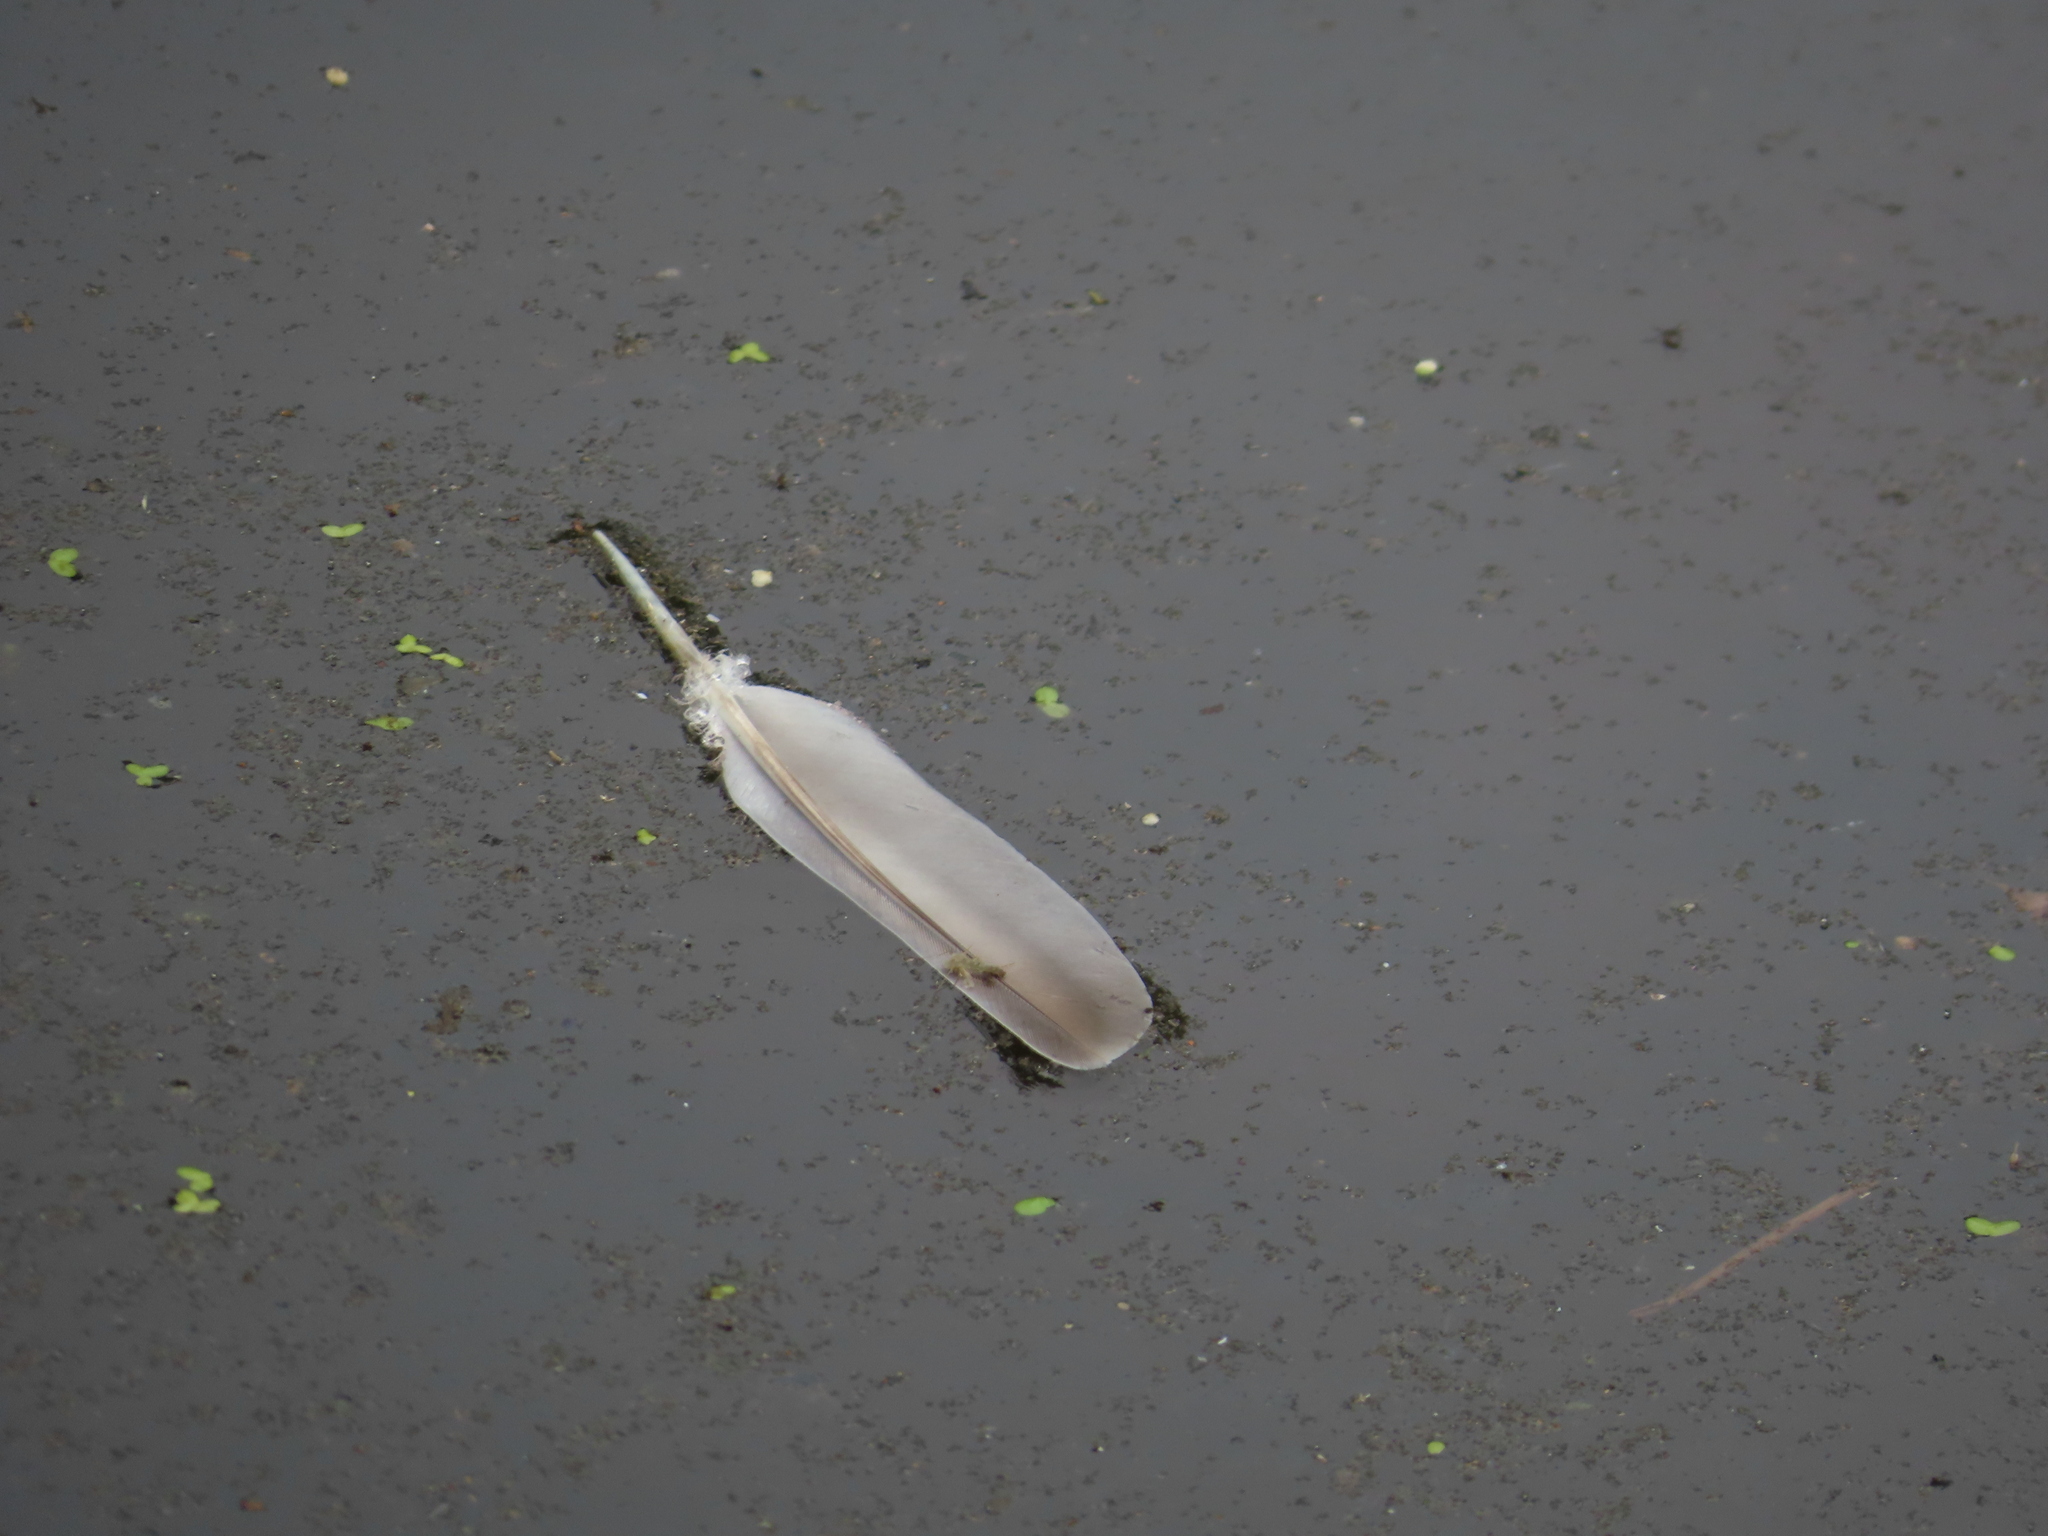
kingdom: Animalia
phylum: Chordata
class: Aves
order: Columbiformes
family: Columbidae
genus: Zenaida
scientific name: Zenaida macroura
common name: Mourning dove
